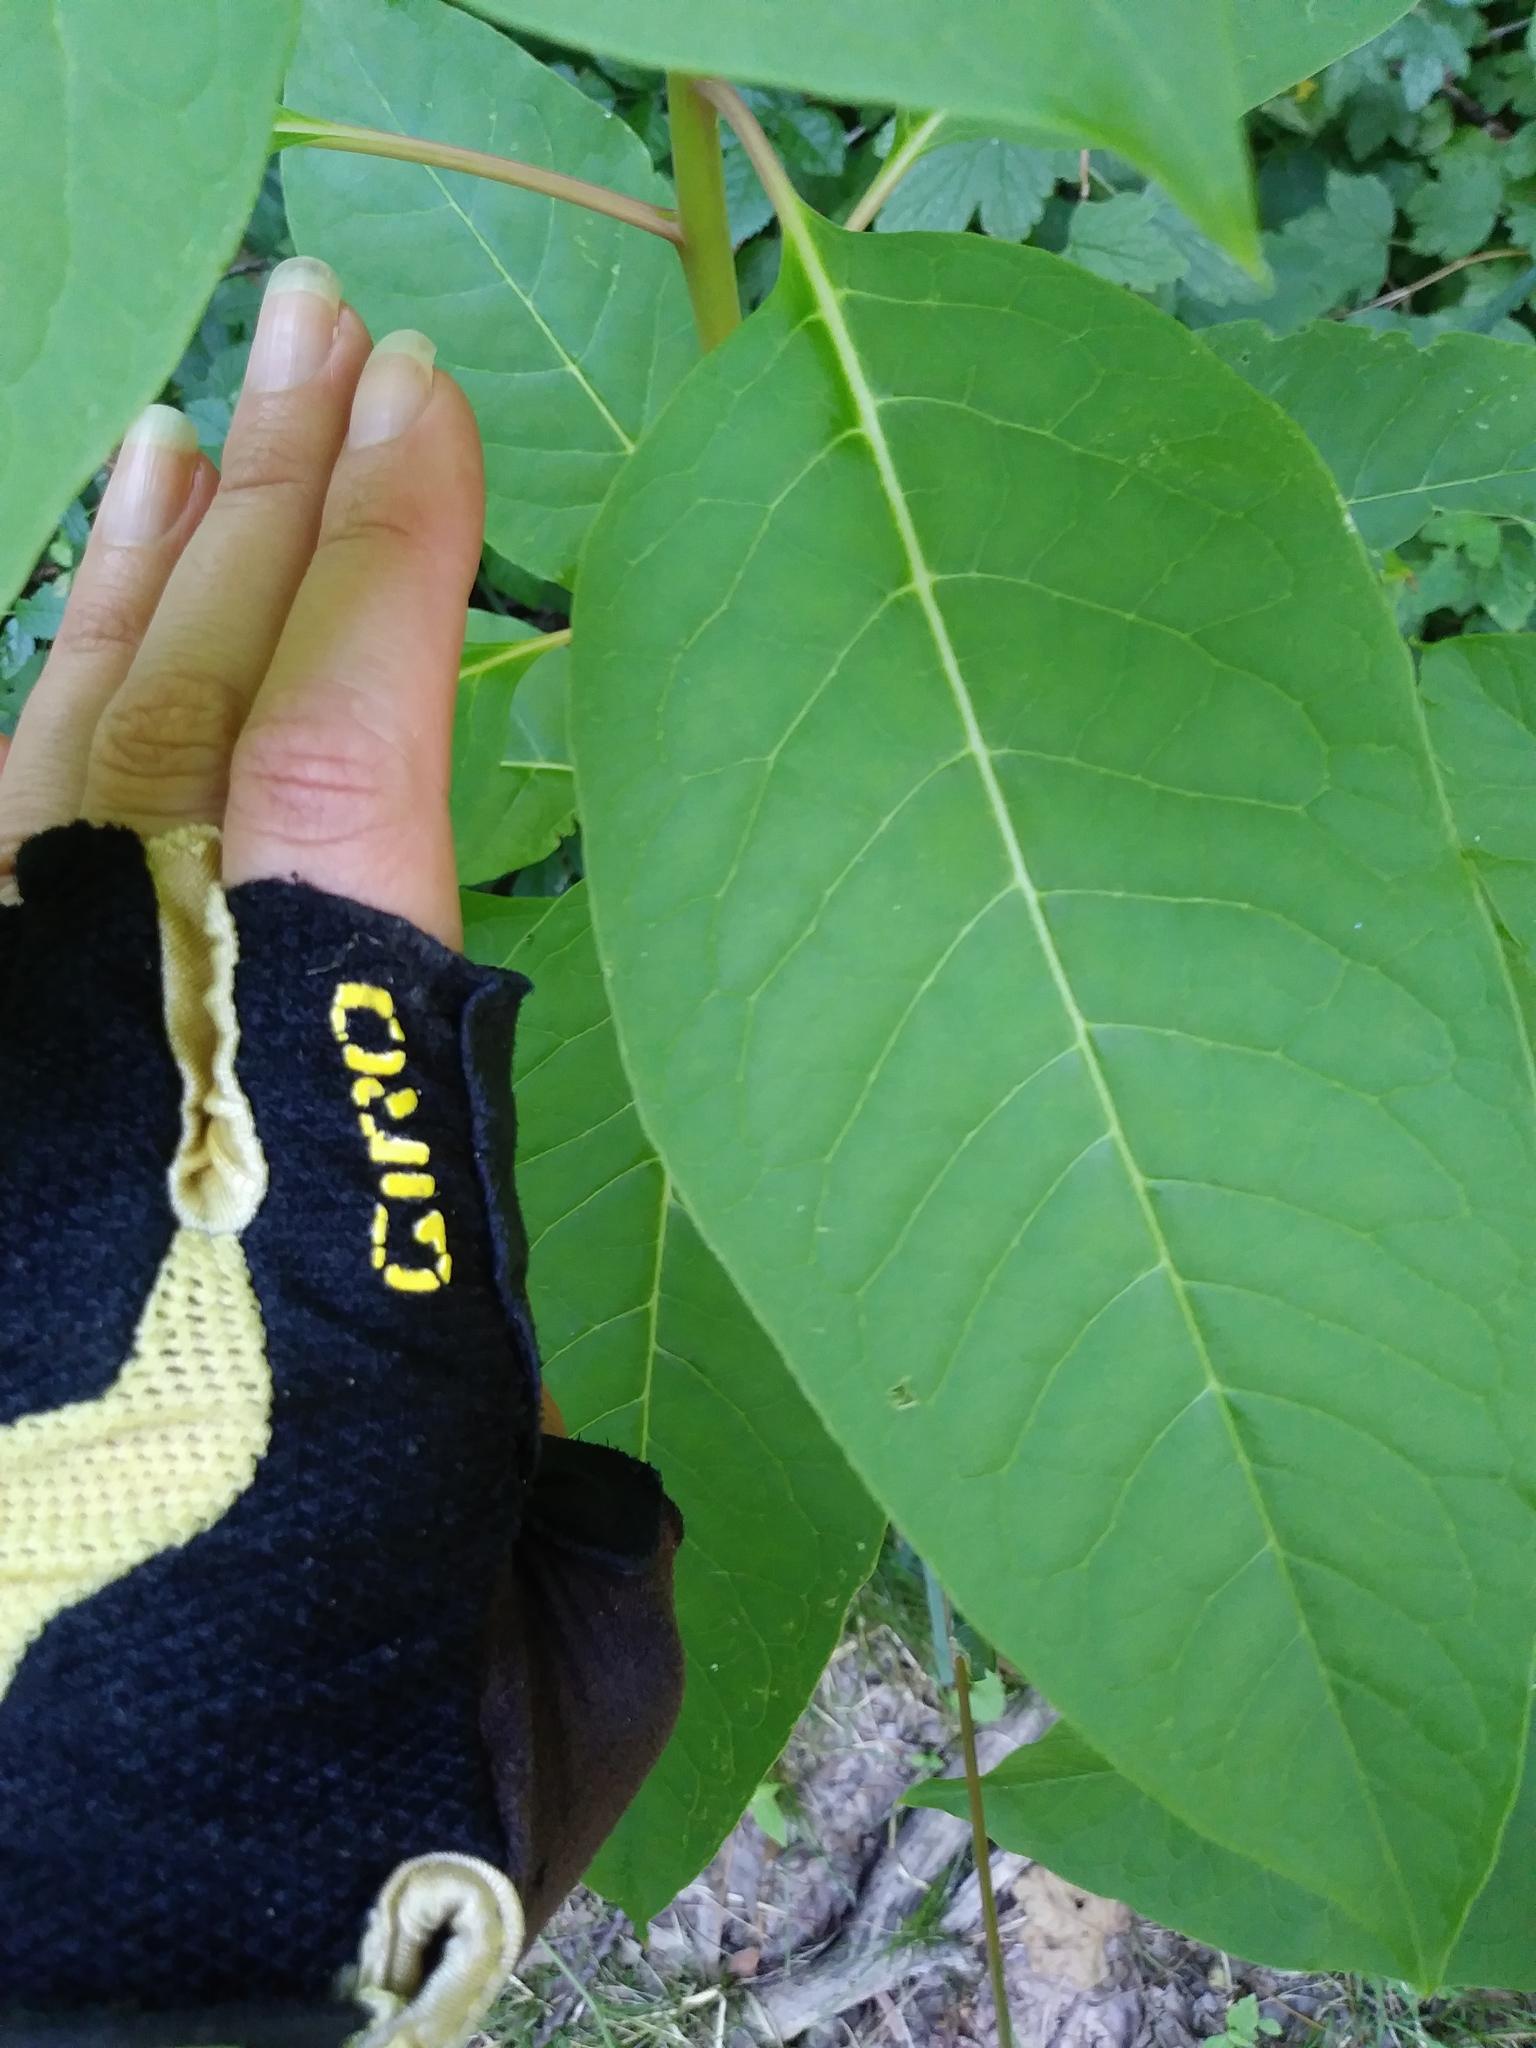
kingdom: Plantae
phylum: Tracheophyta
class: Magnoliopsida
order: Caryophyllales
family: Phytolaccaceae
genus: Phytolacca
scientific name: Phytolacca americana
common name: American pokeweed
